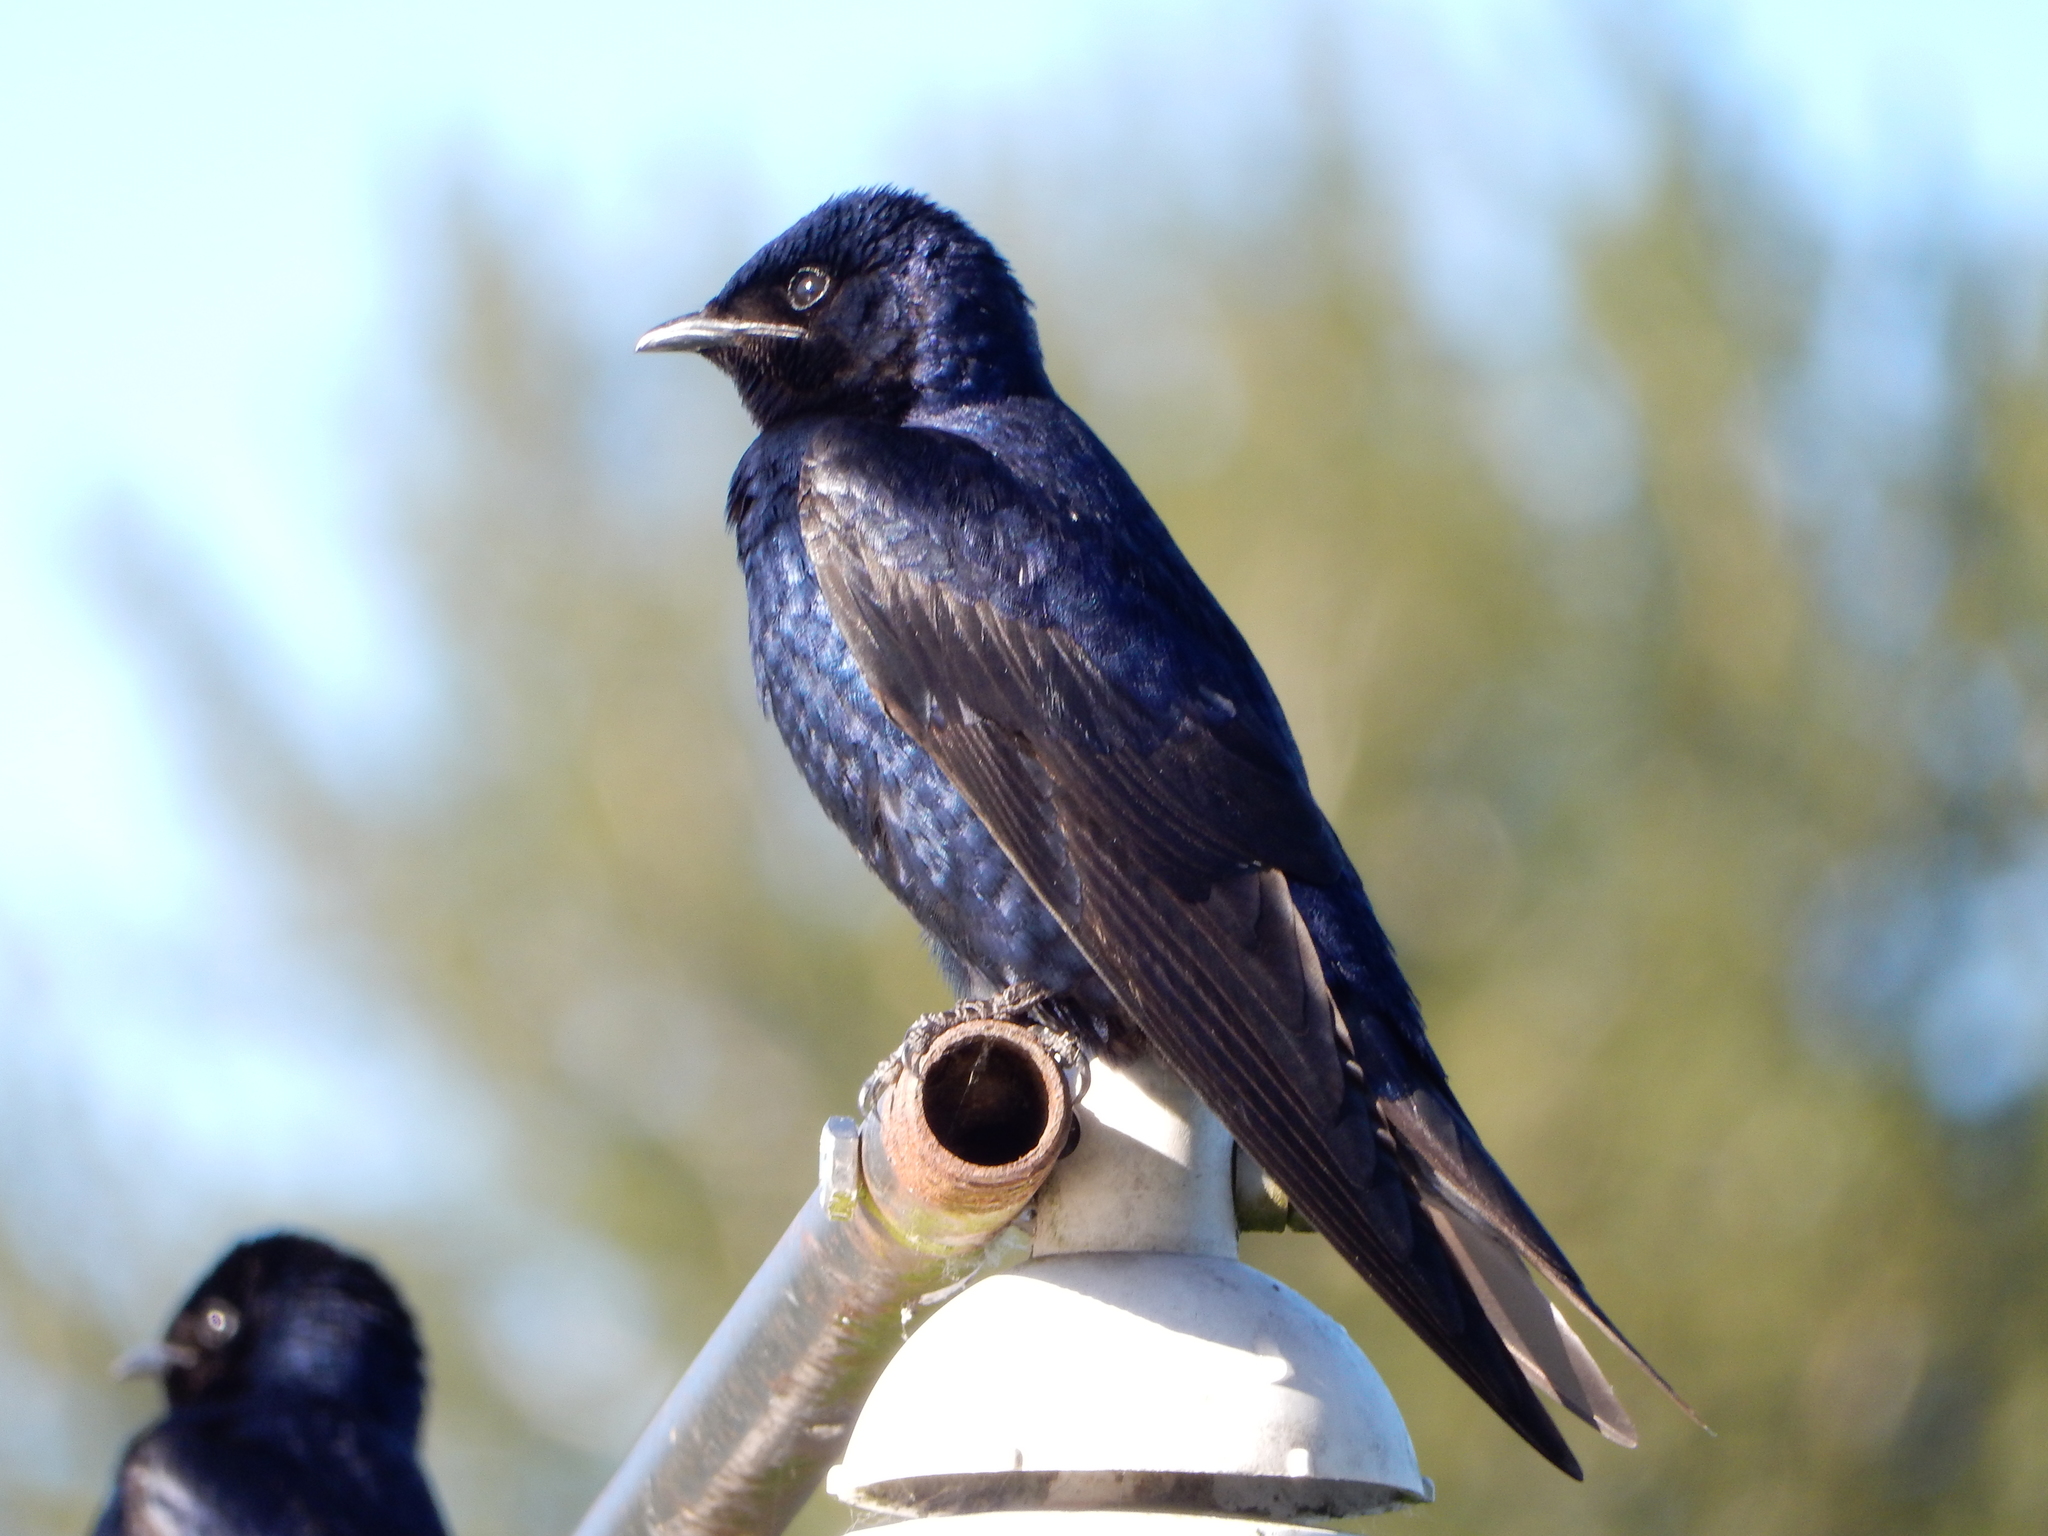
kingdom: Animalia
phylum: Chordata
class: Aves
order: Passeriformes
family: Hirundinidae
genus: Progne
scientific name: Progne subis
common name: Purple martin
